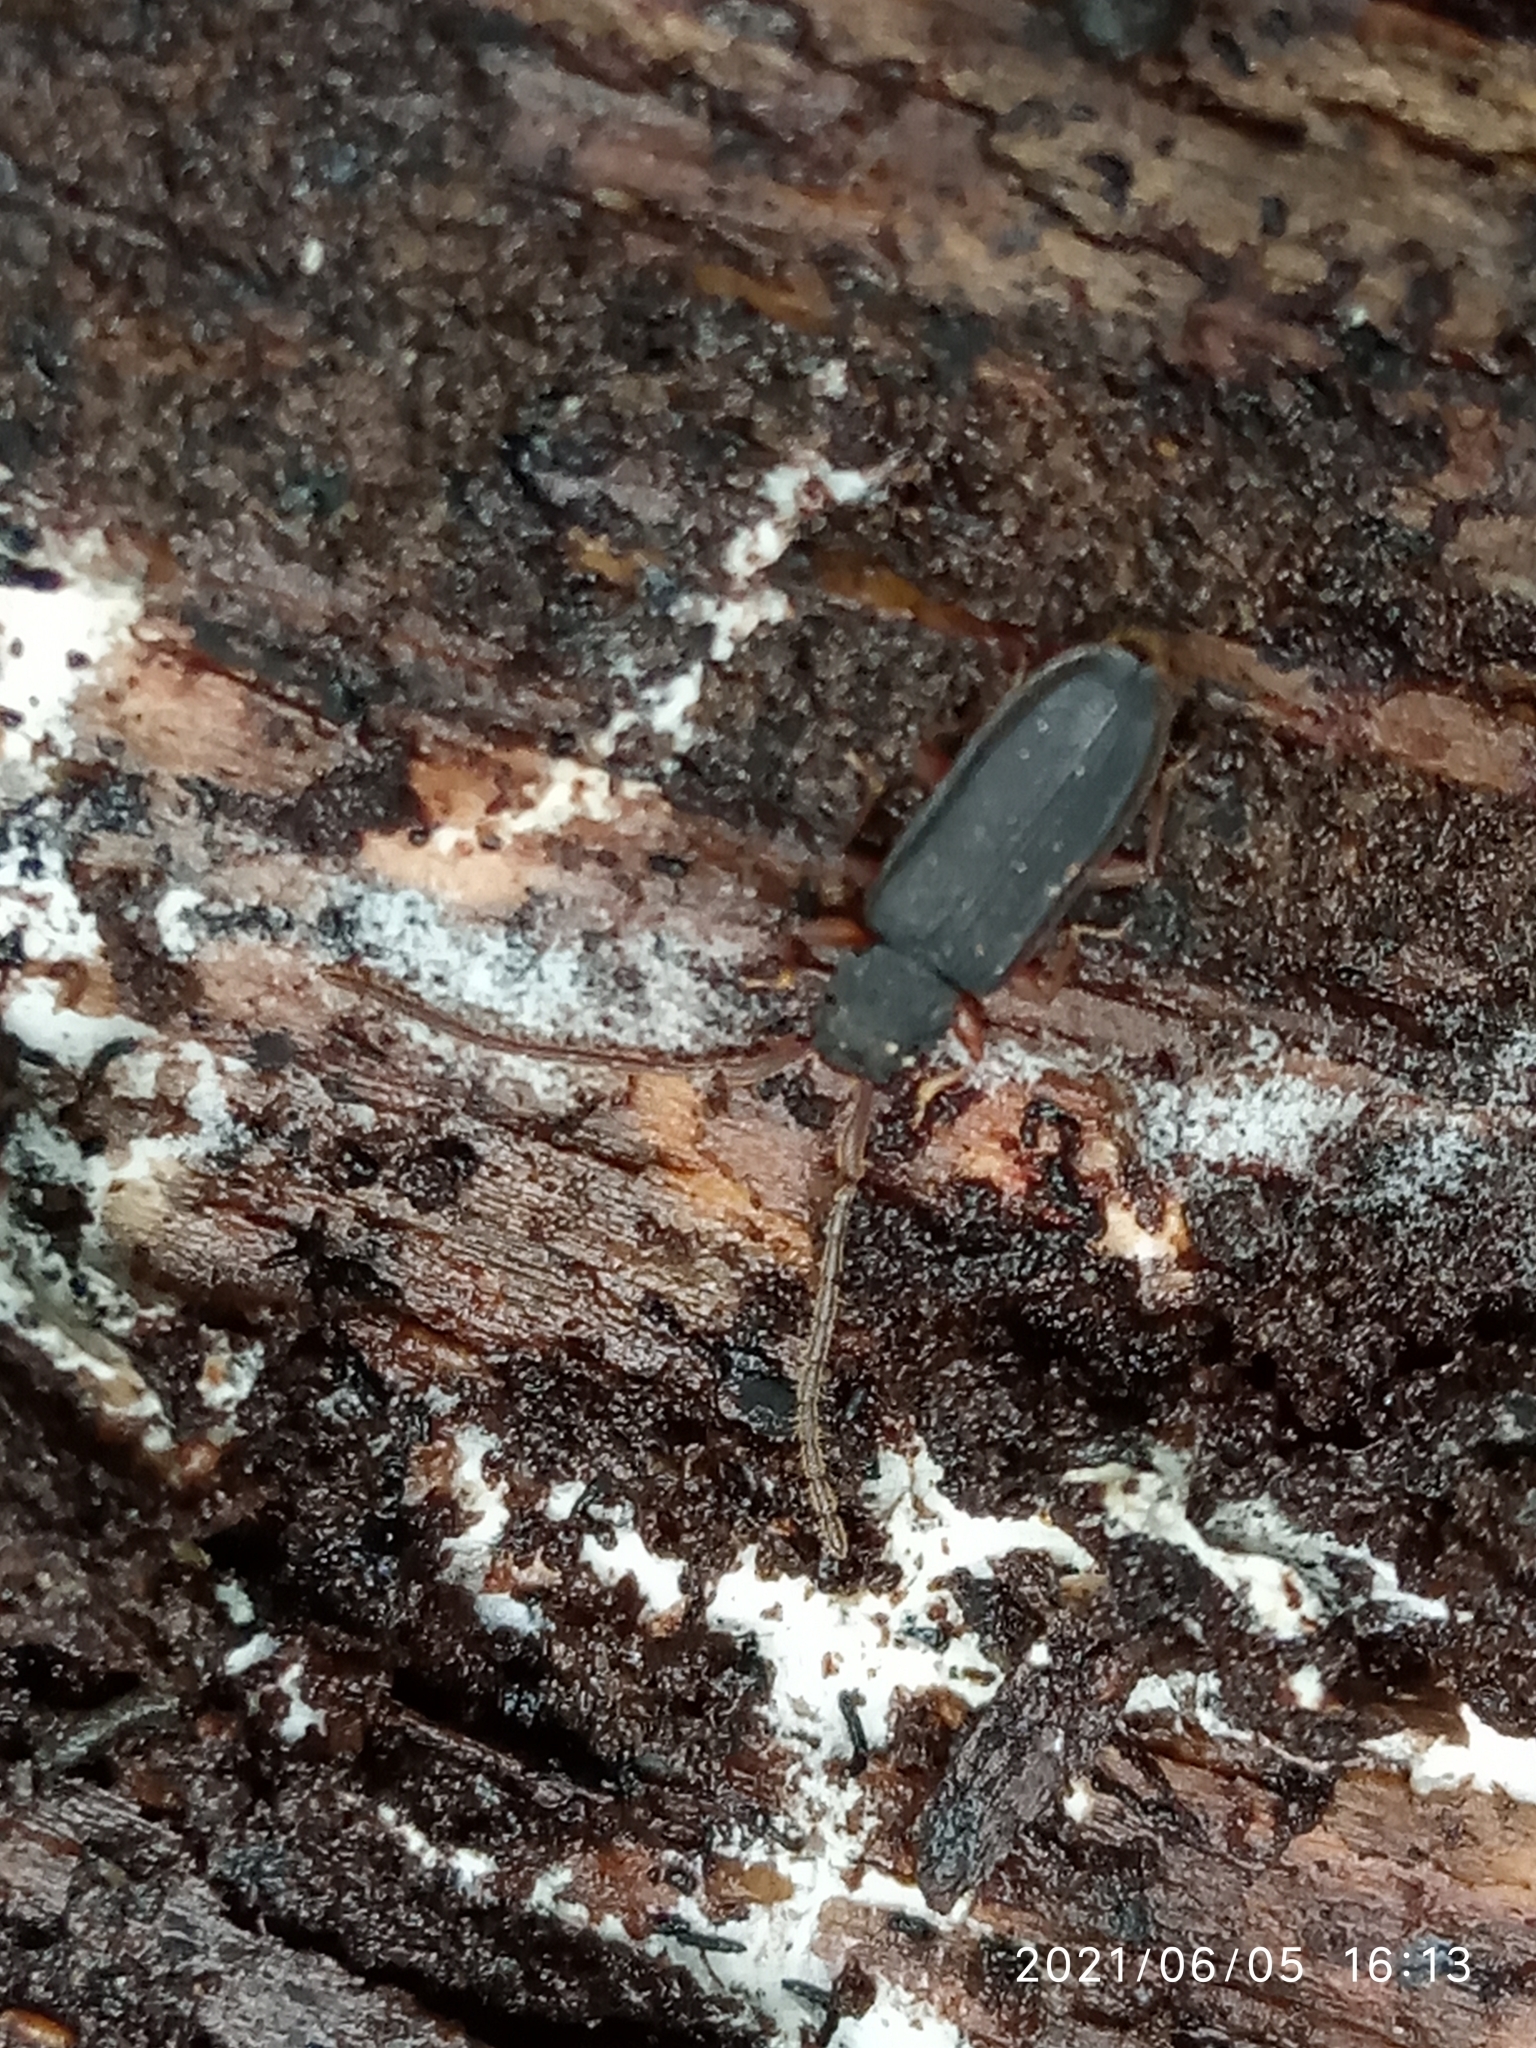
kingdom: Animalia
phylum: Arthropoda
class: Insecta
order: Coleoptera
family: Silvanidae
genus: Uleiota
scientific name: Uleiota planatus
